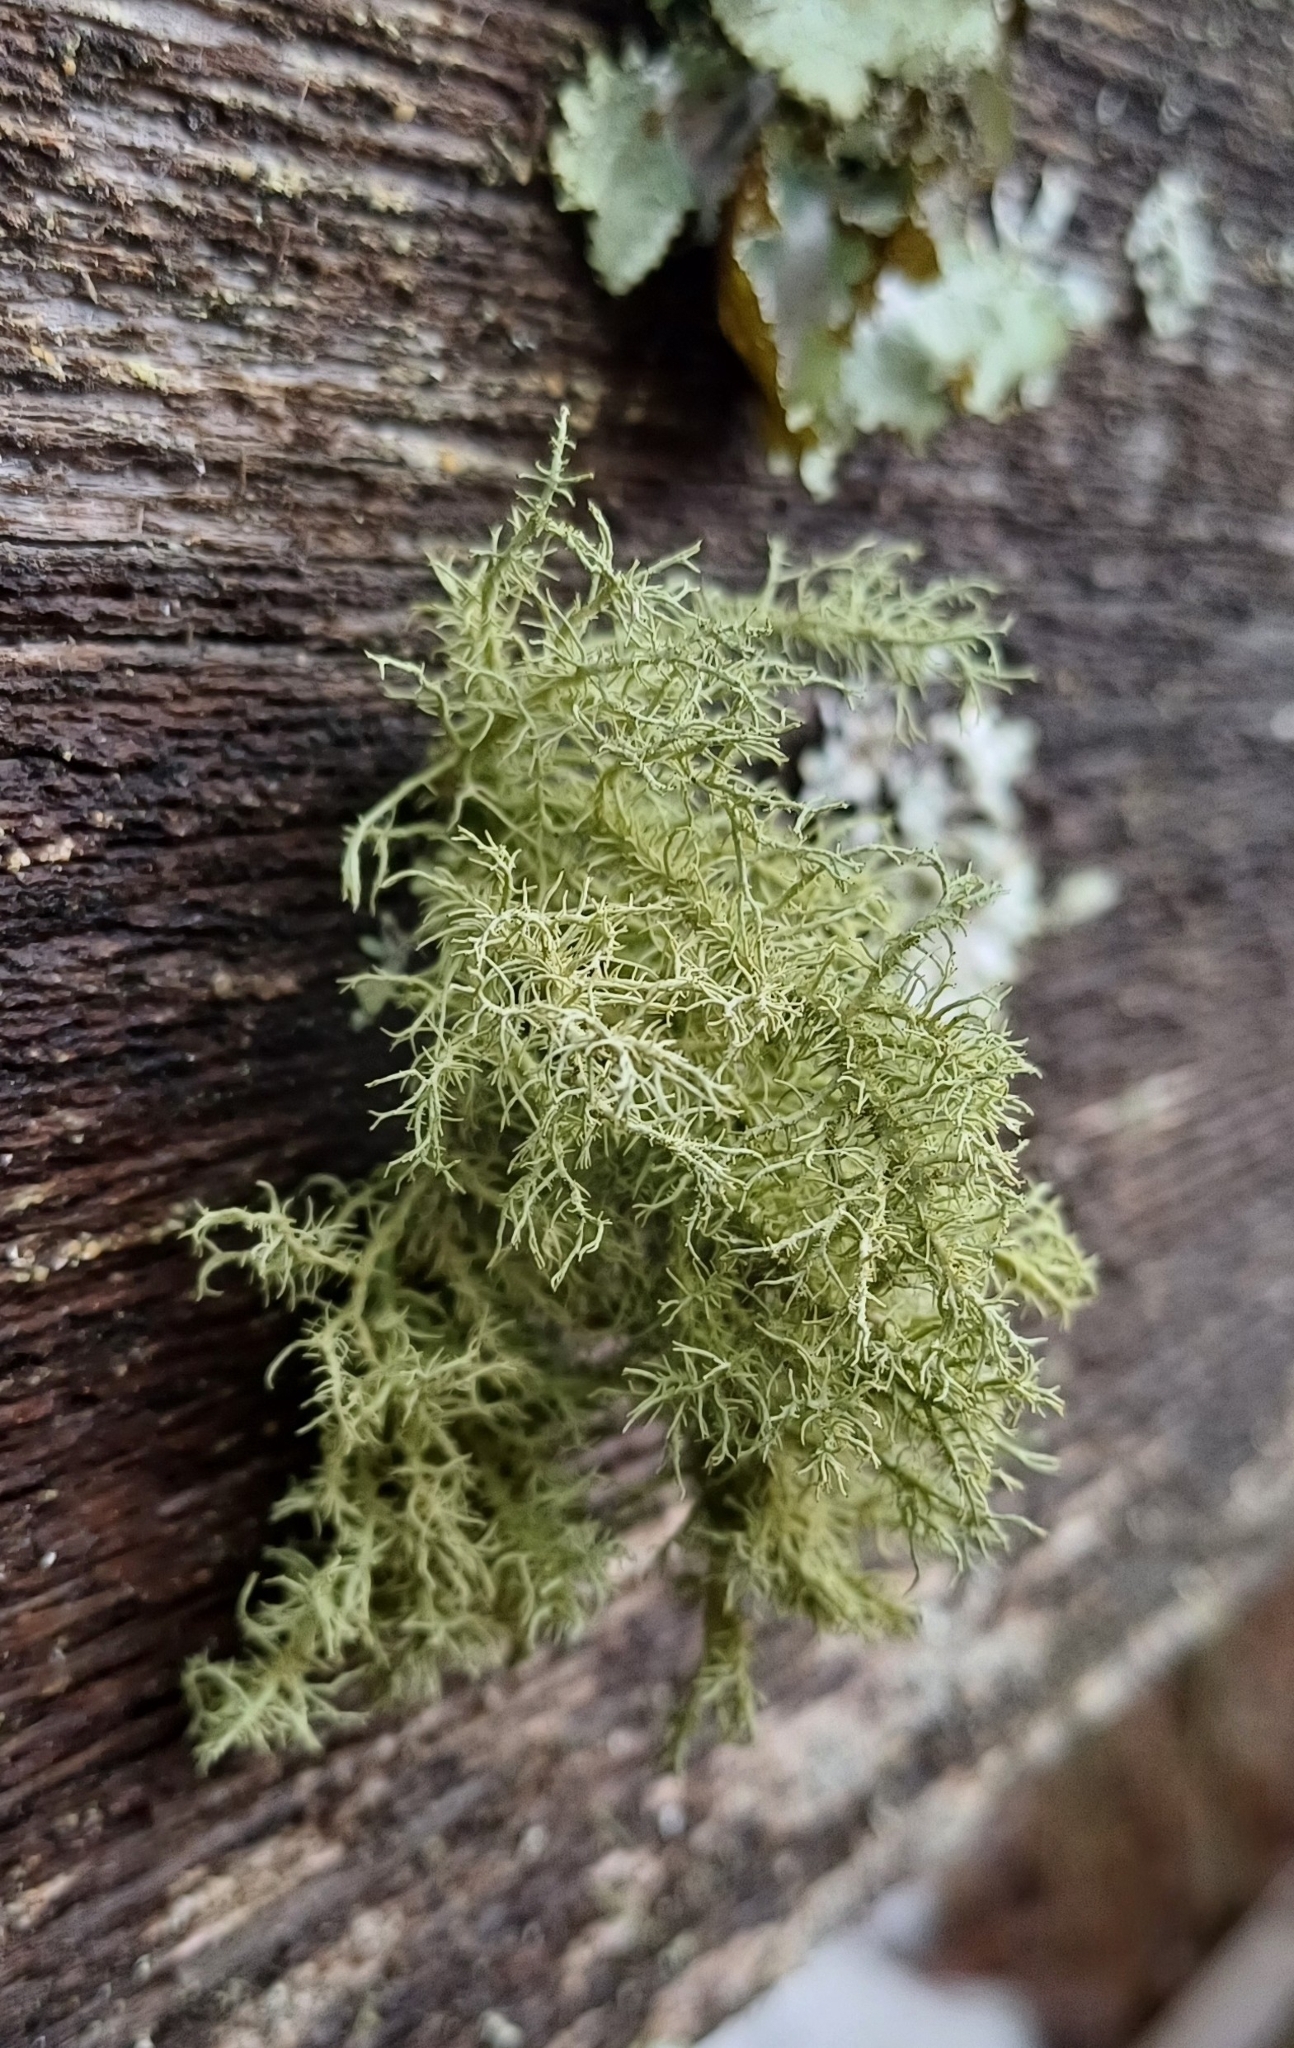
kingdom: Fungi
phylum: Ascomycota
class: Lecanoromycetes
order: Lecanorales
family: Parmeliaceae
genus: Usnea
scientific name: Usnea hirta
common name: Bristly beard lichen
